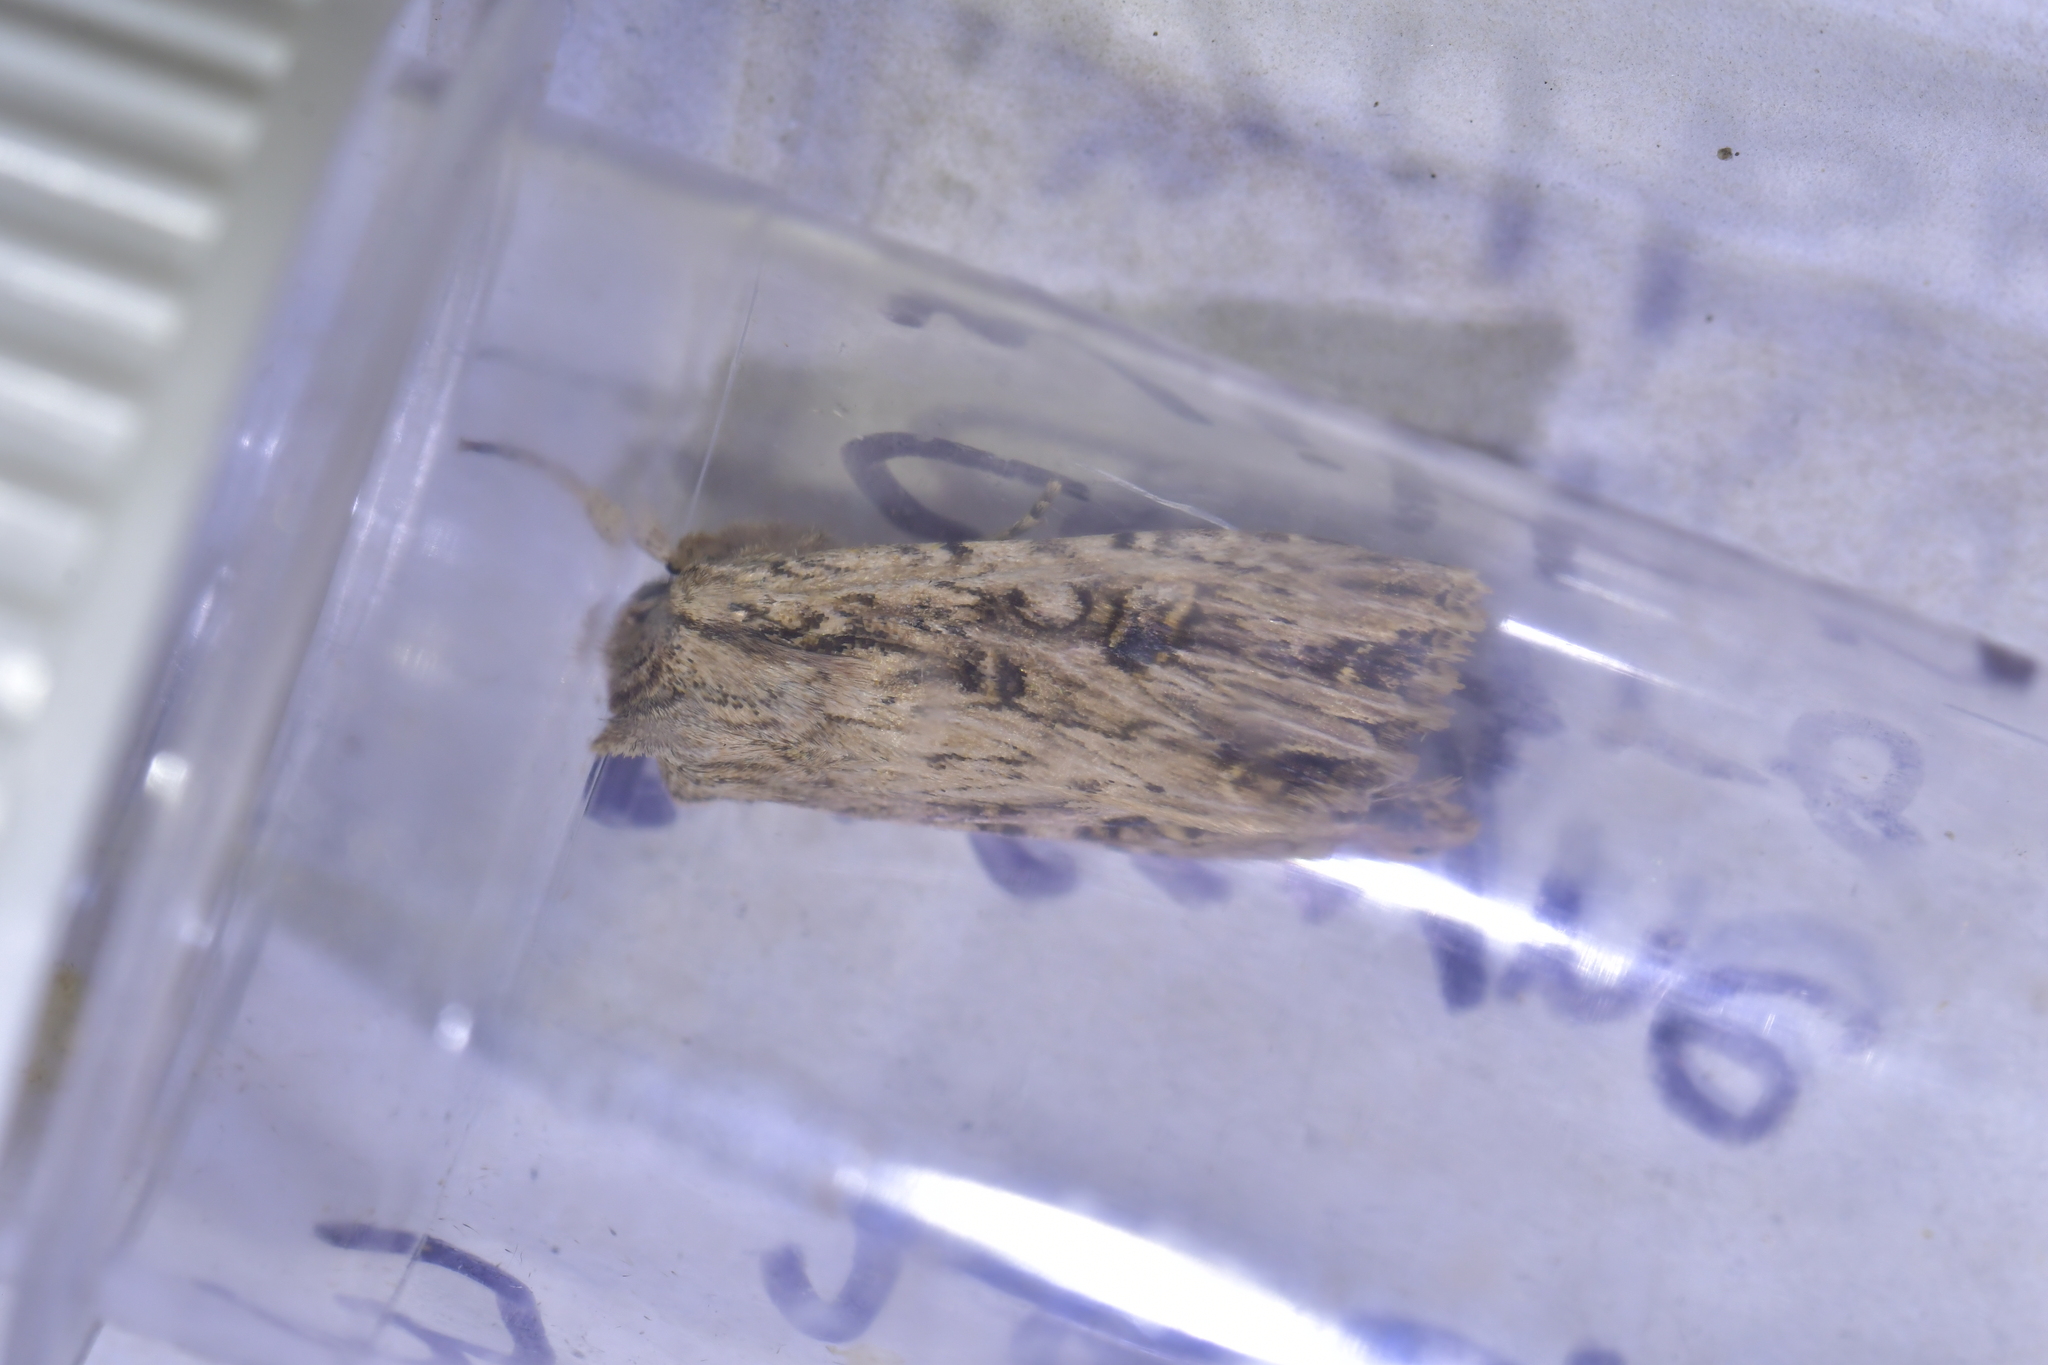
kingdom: Animalia
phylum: Arthropoda
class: Insecta
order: Lepidoptera
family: Noctuidae
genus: Ichneutica
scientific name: Ichneutica lignana
